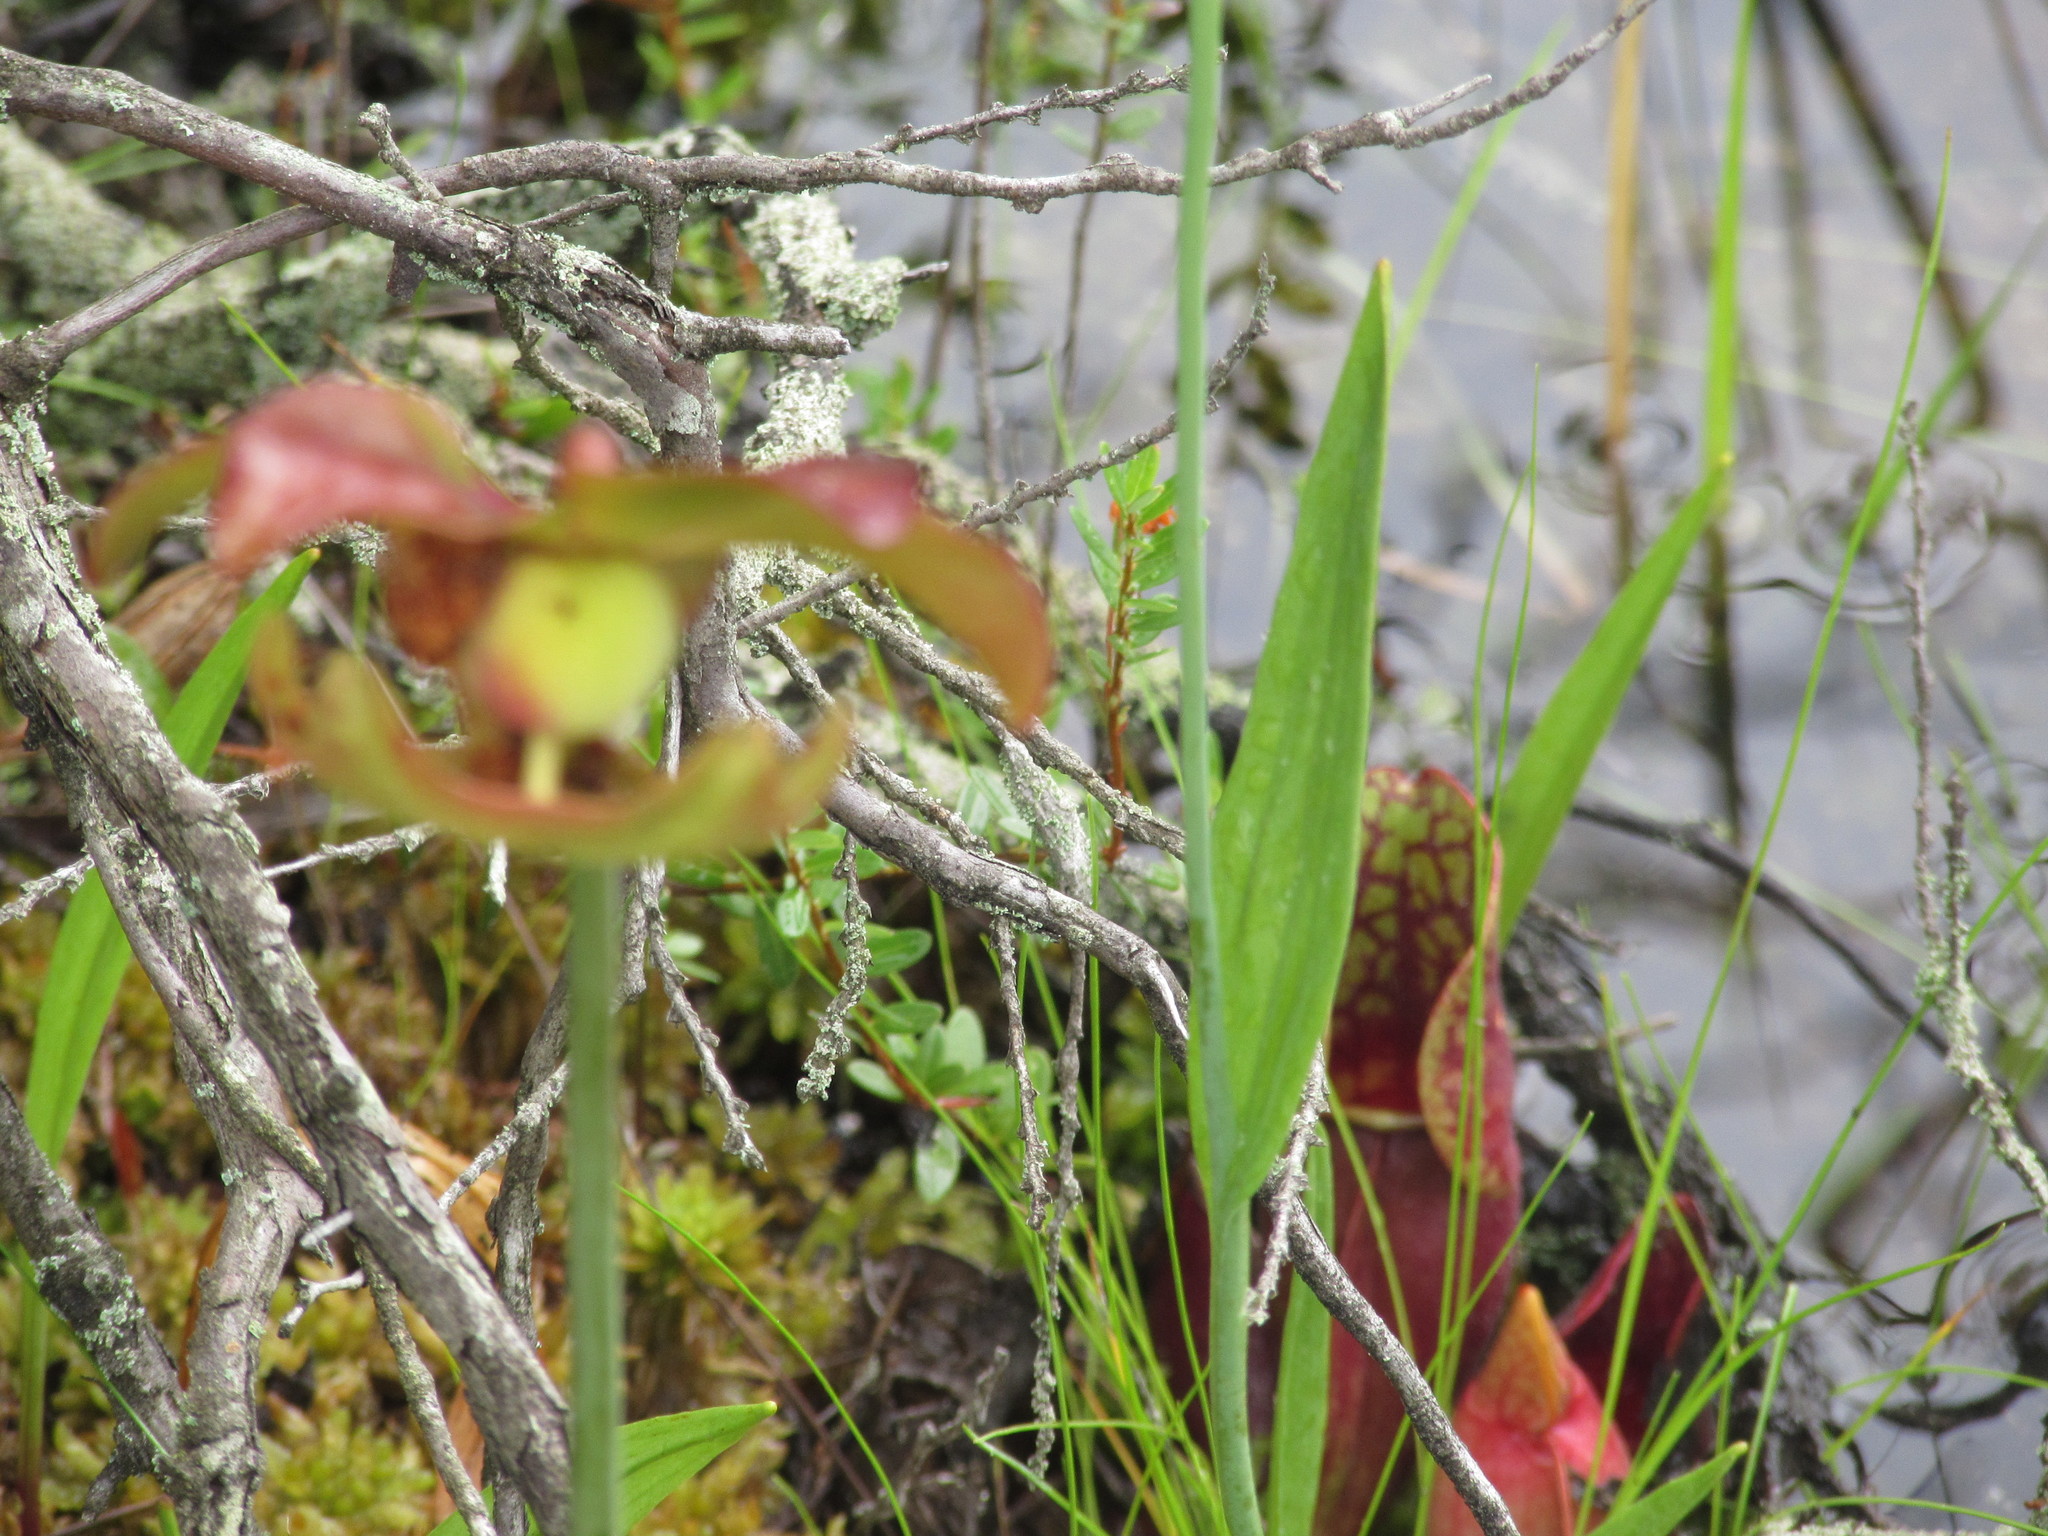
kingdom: Plantae
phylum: Tracheophyta
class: Magnoliopsida
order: Ericales
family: Sarraceniaceae
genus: Sarracenia
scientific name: Sarracenia purpurea
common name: Pitcherplant
